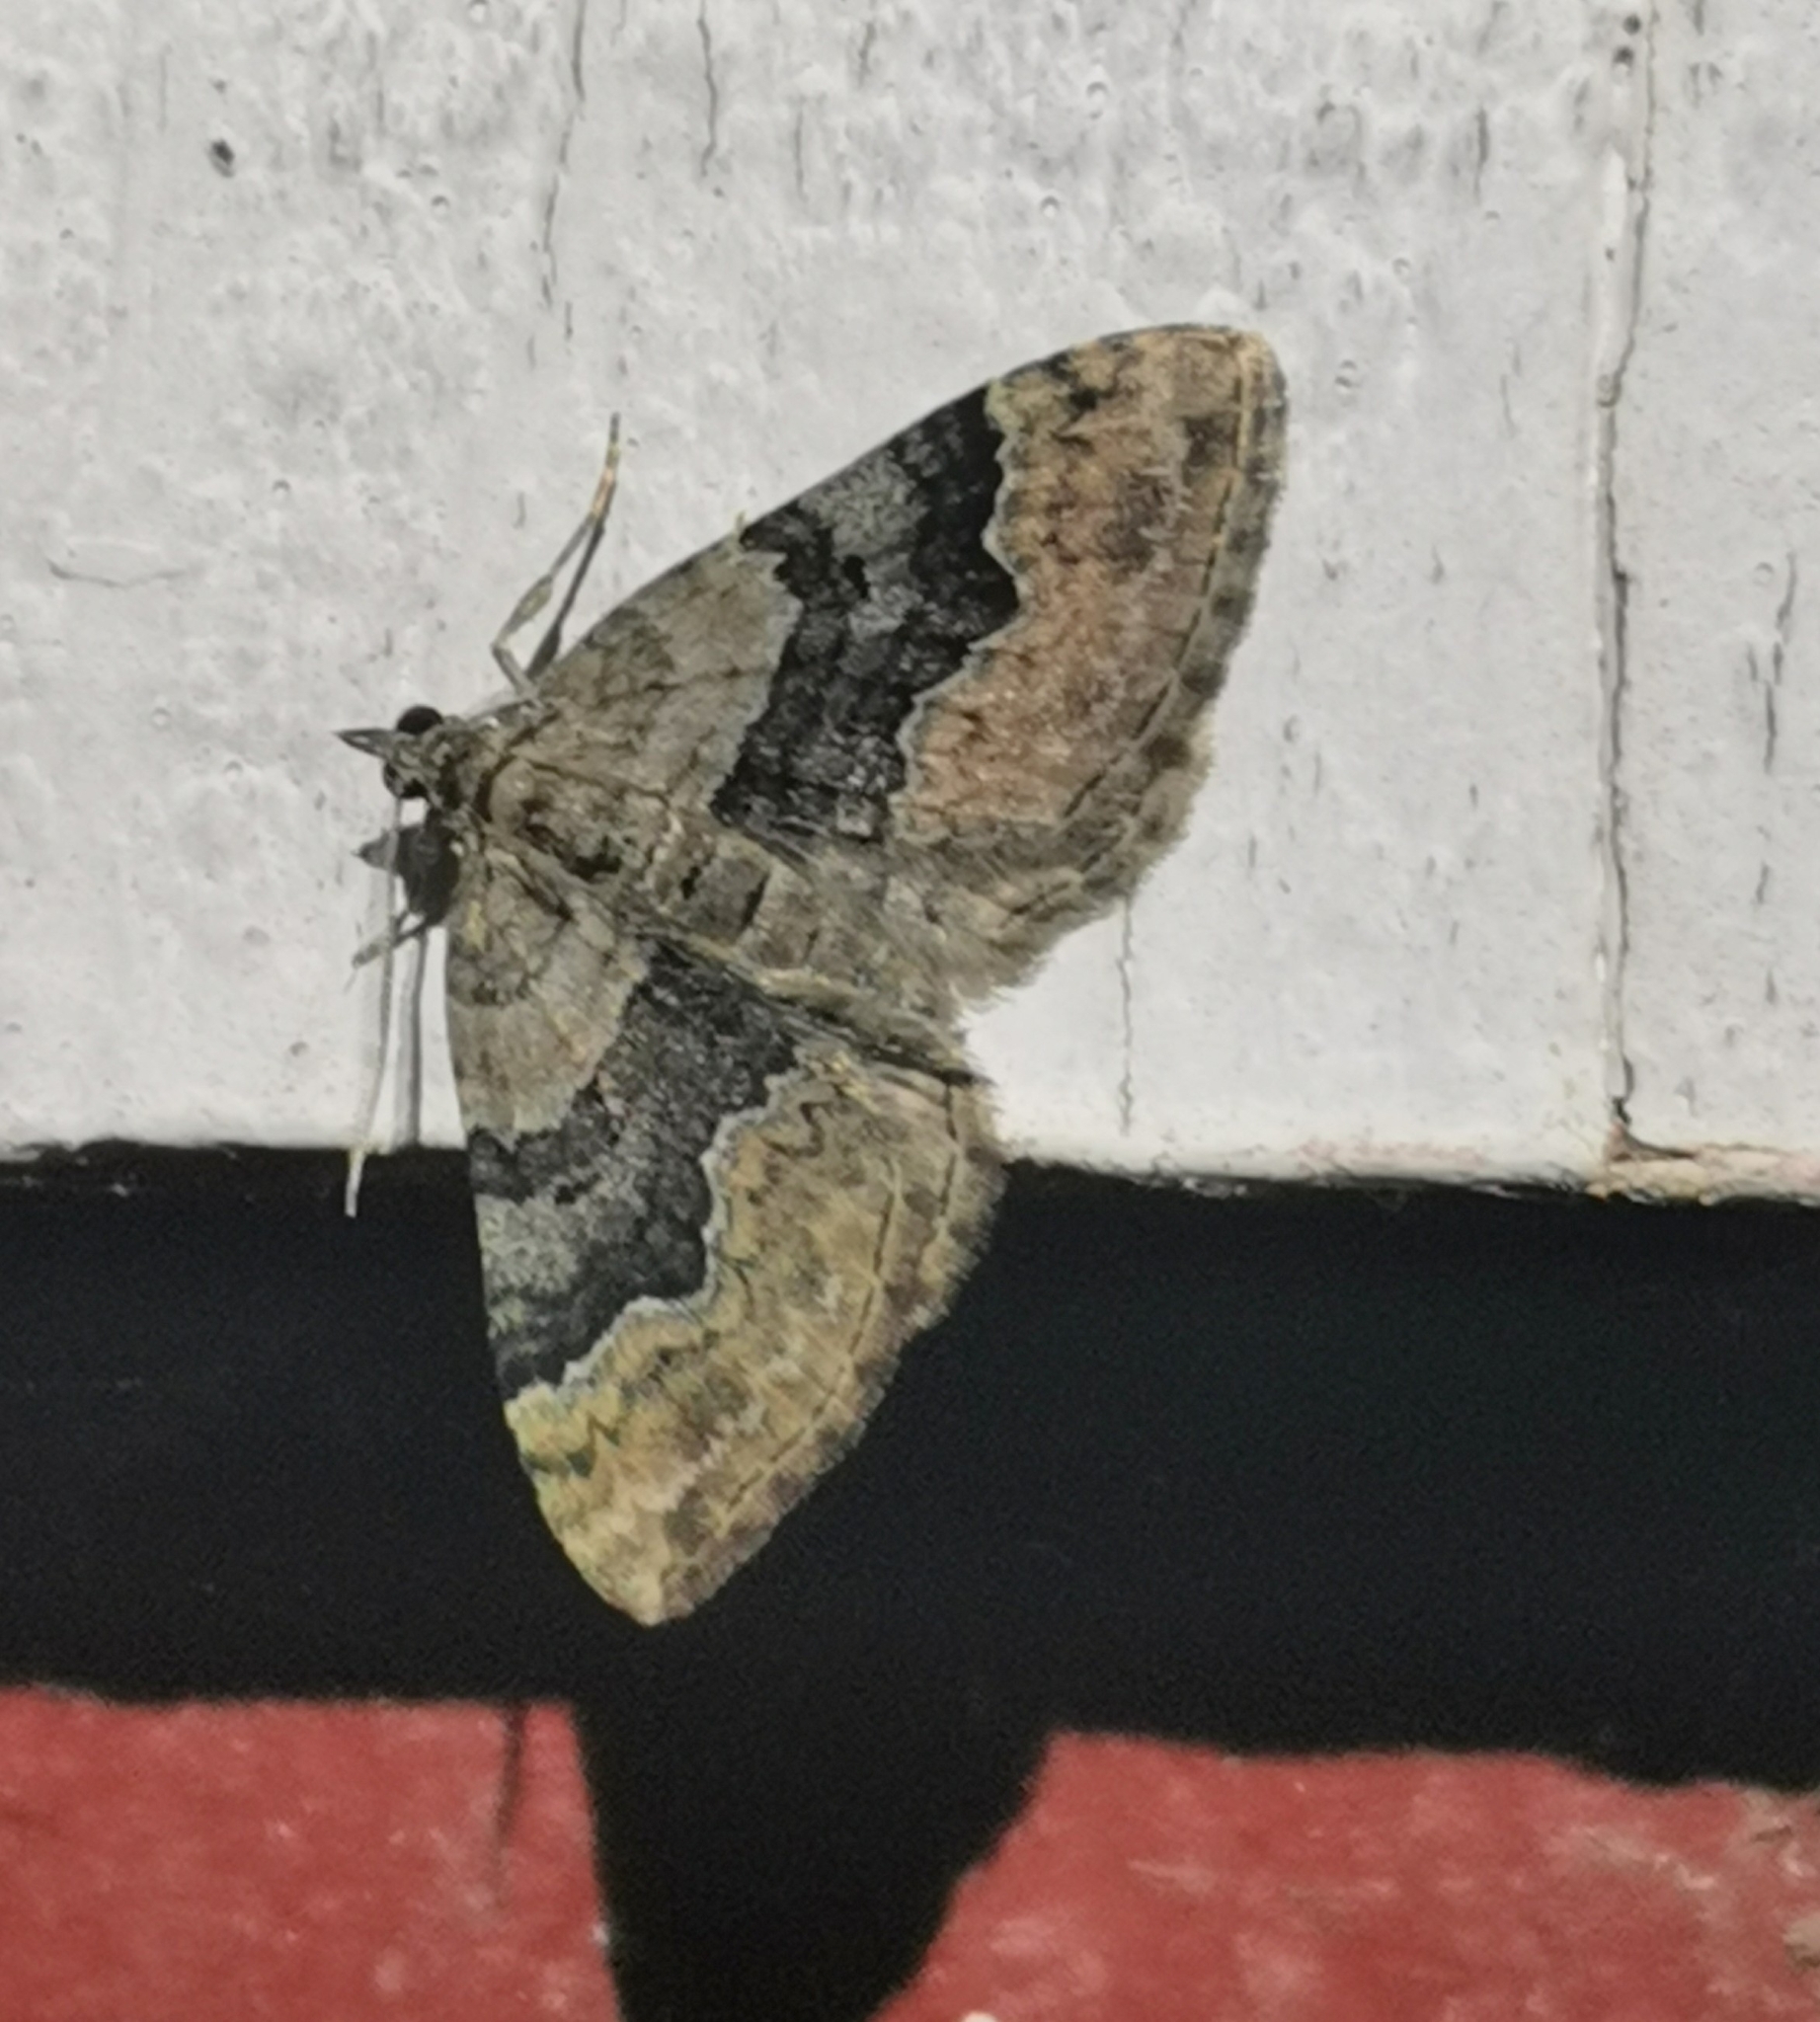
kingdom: Animalia
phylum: Arthropoda
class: Insecta
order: Lepidoptera
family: Geometridae
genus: Xanthorhoe
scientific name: Xanthorhoe quadrifasiata
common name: Large twin-spot carpet
